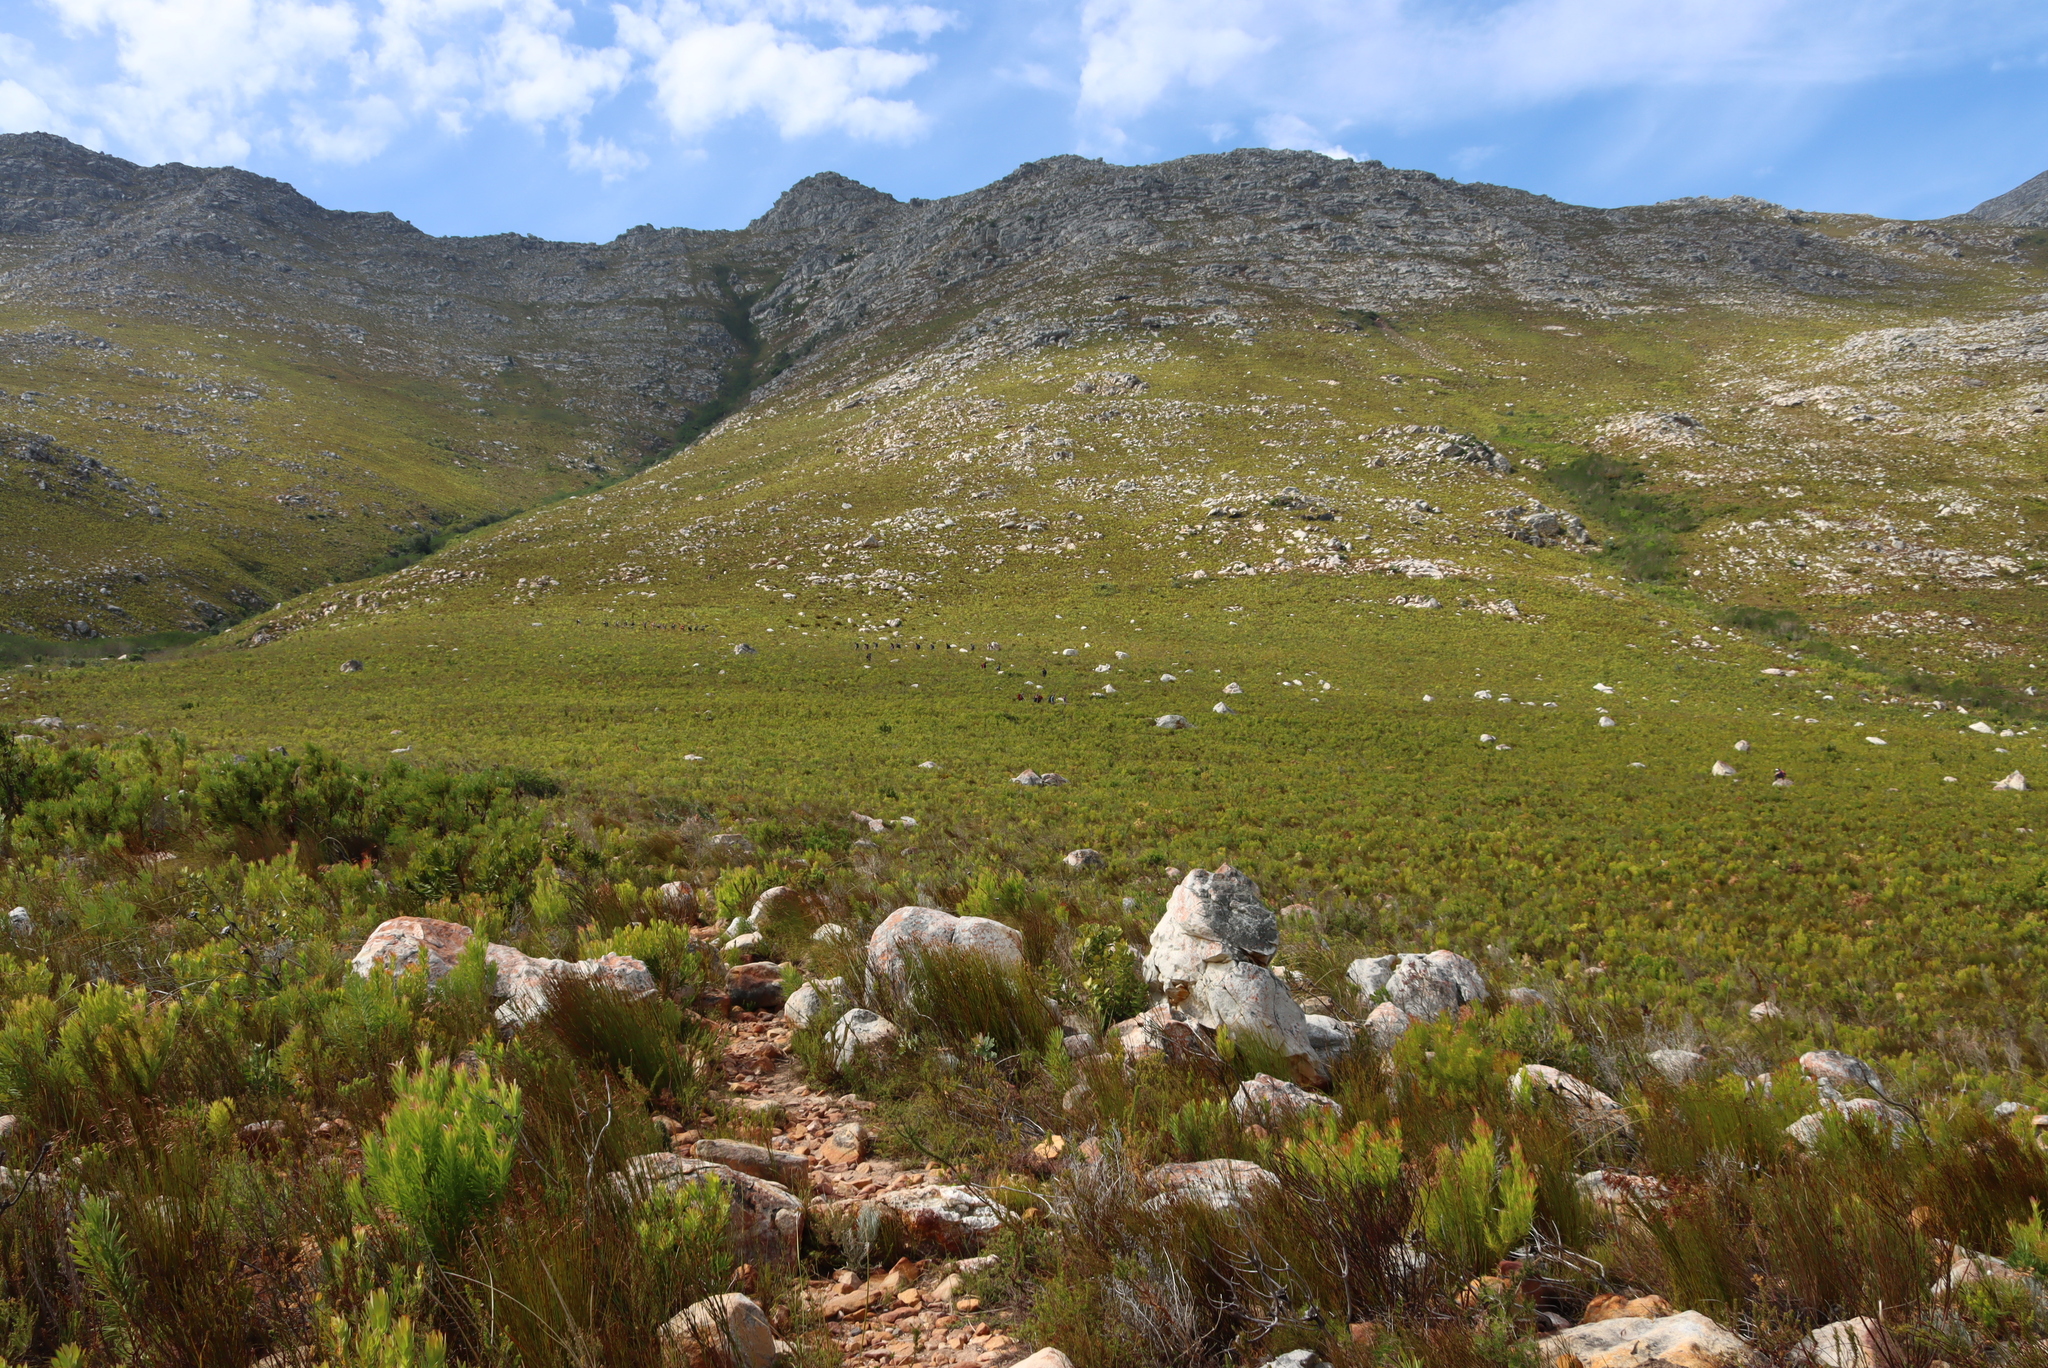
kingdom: Plantae
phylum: Tracheophyta
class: Magnoliopsida
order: Proteales
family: Proteaceae
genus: Leucadendron
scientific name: Leucadendron xanthoconus
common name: Sickle-leaf conebush
